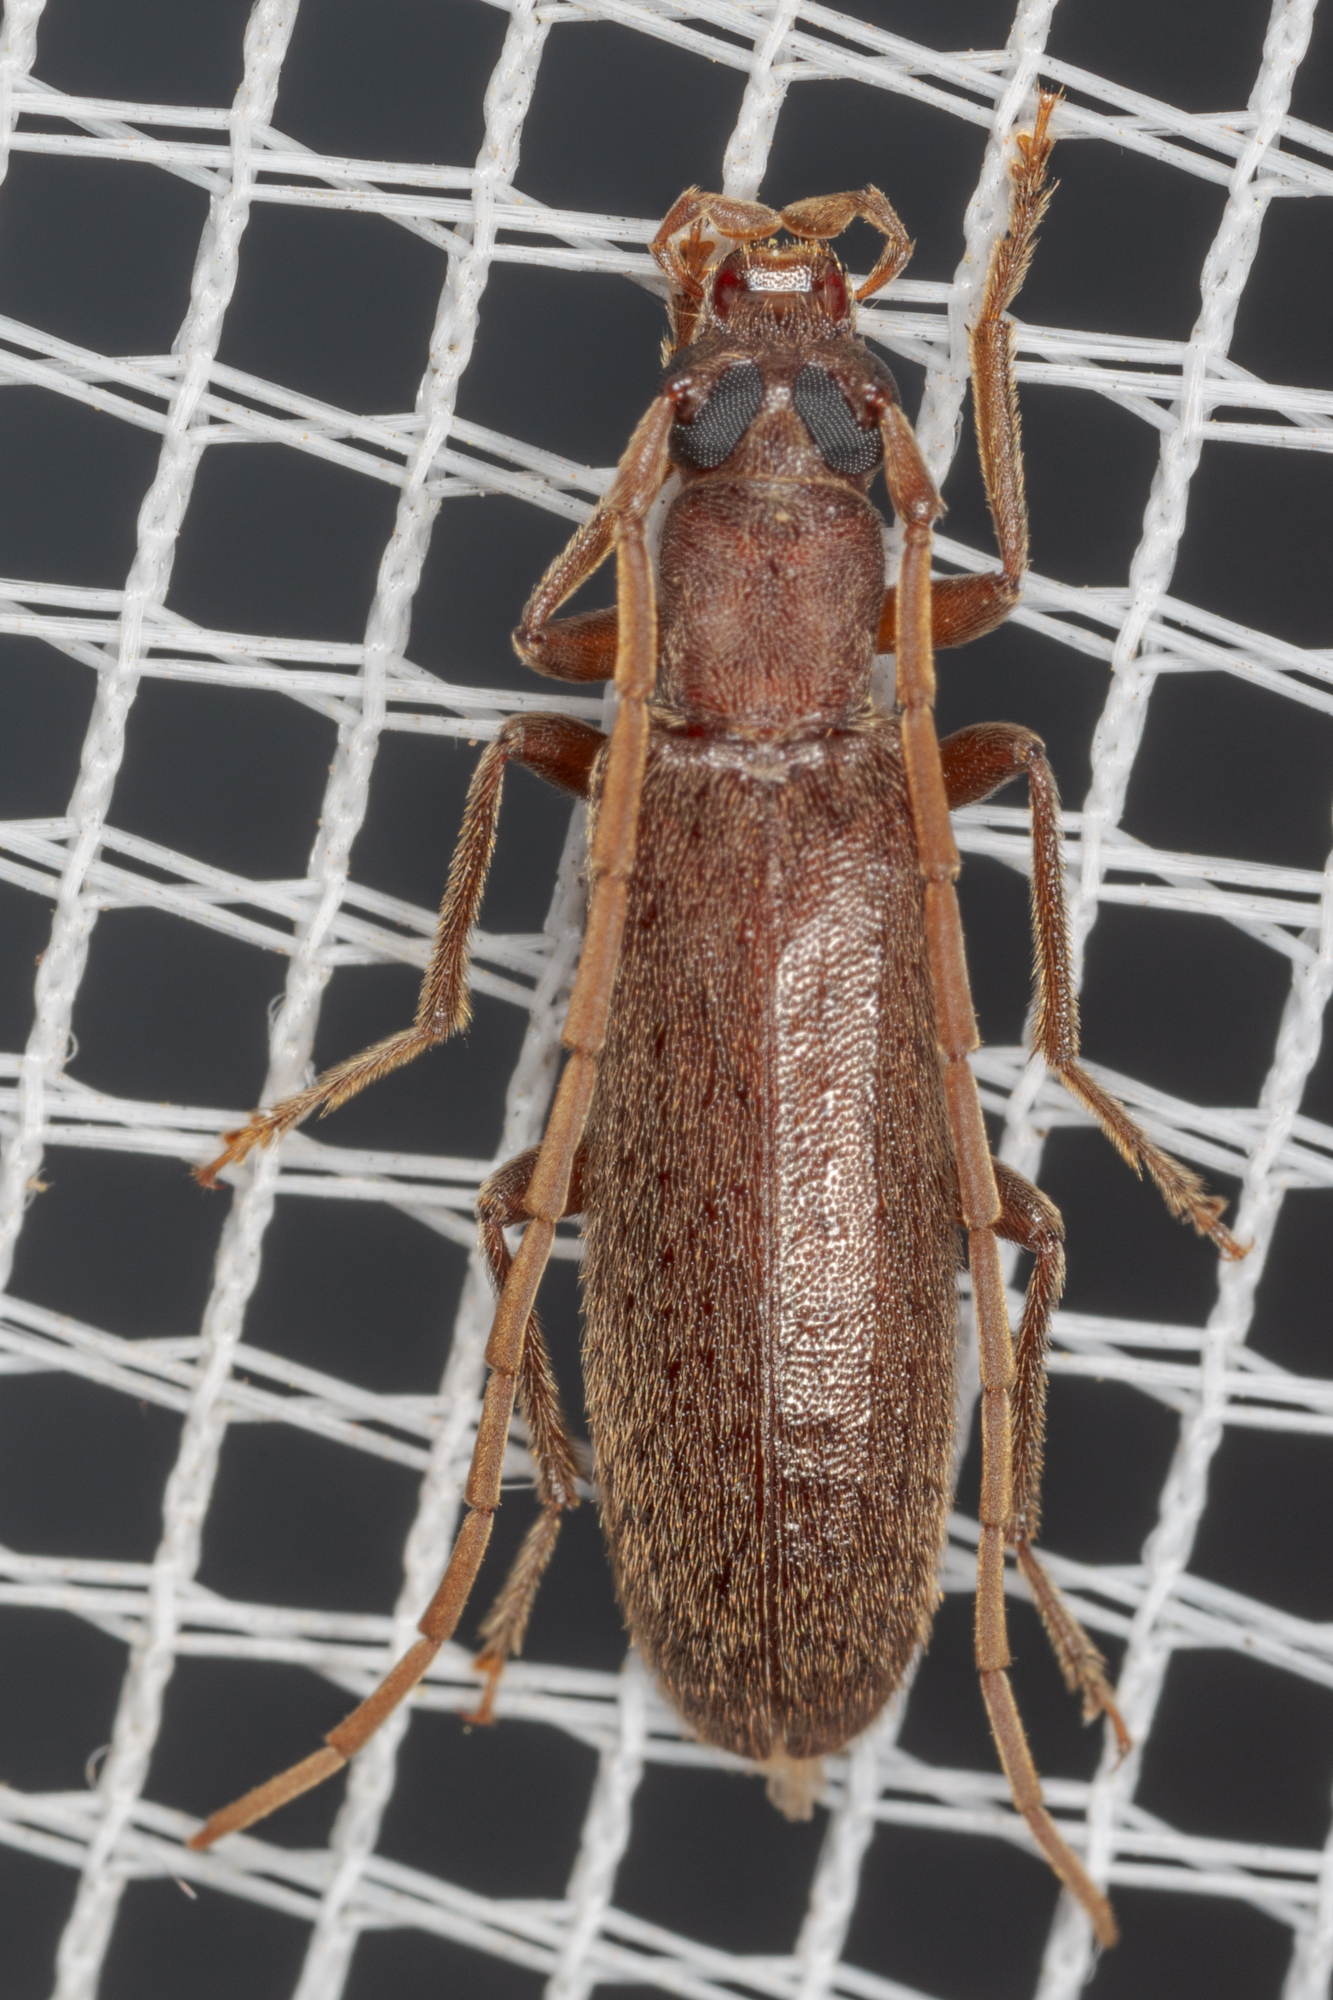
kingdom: Animalia
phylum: Arthropoda
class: Insecta
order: Coleoptera
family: Oedemeridae
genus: Sparedrus
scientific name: Sparedrus aspersus
